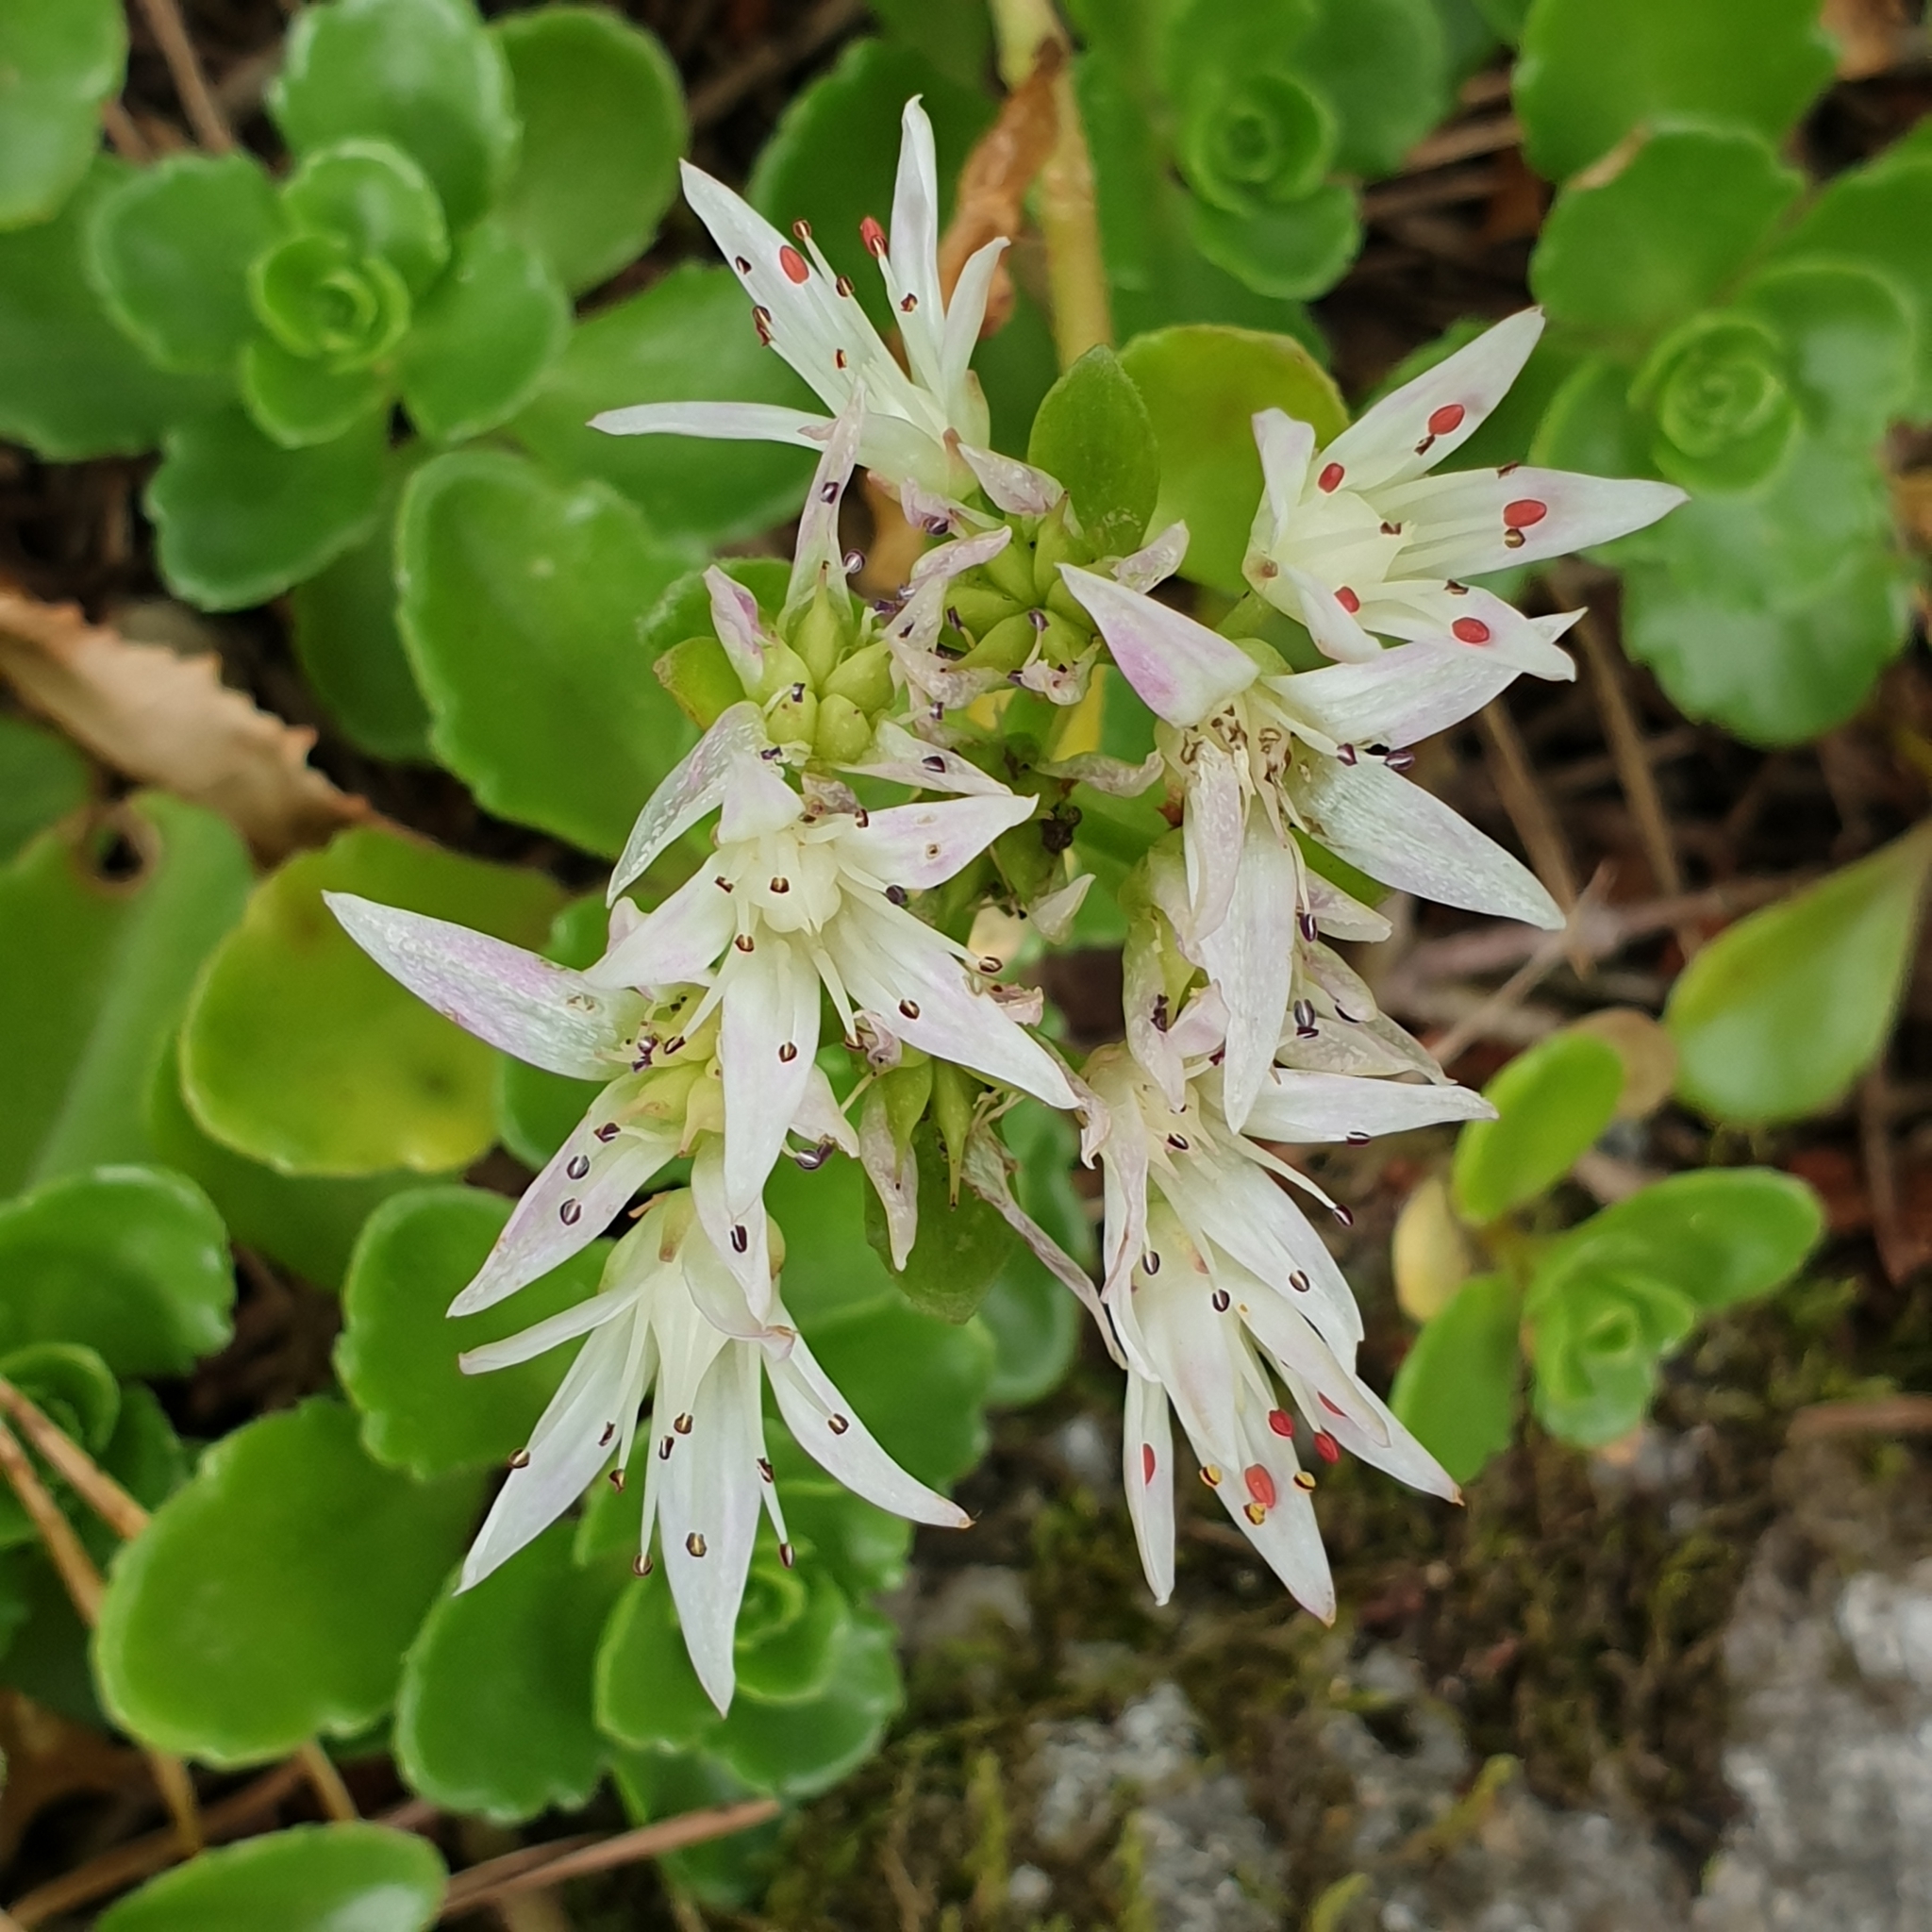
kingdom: Plantae
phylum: Tracheophyta
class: Magnoliopsida
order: Saxifragales
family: Crassulaceae
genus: Phedimus
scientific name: Phedimus spurius
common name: Caucasian stonecrop
